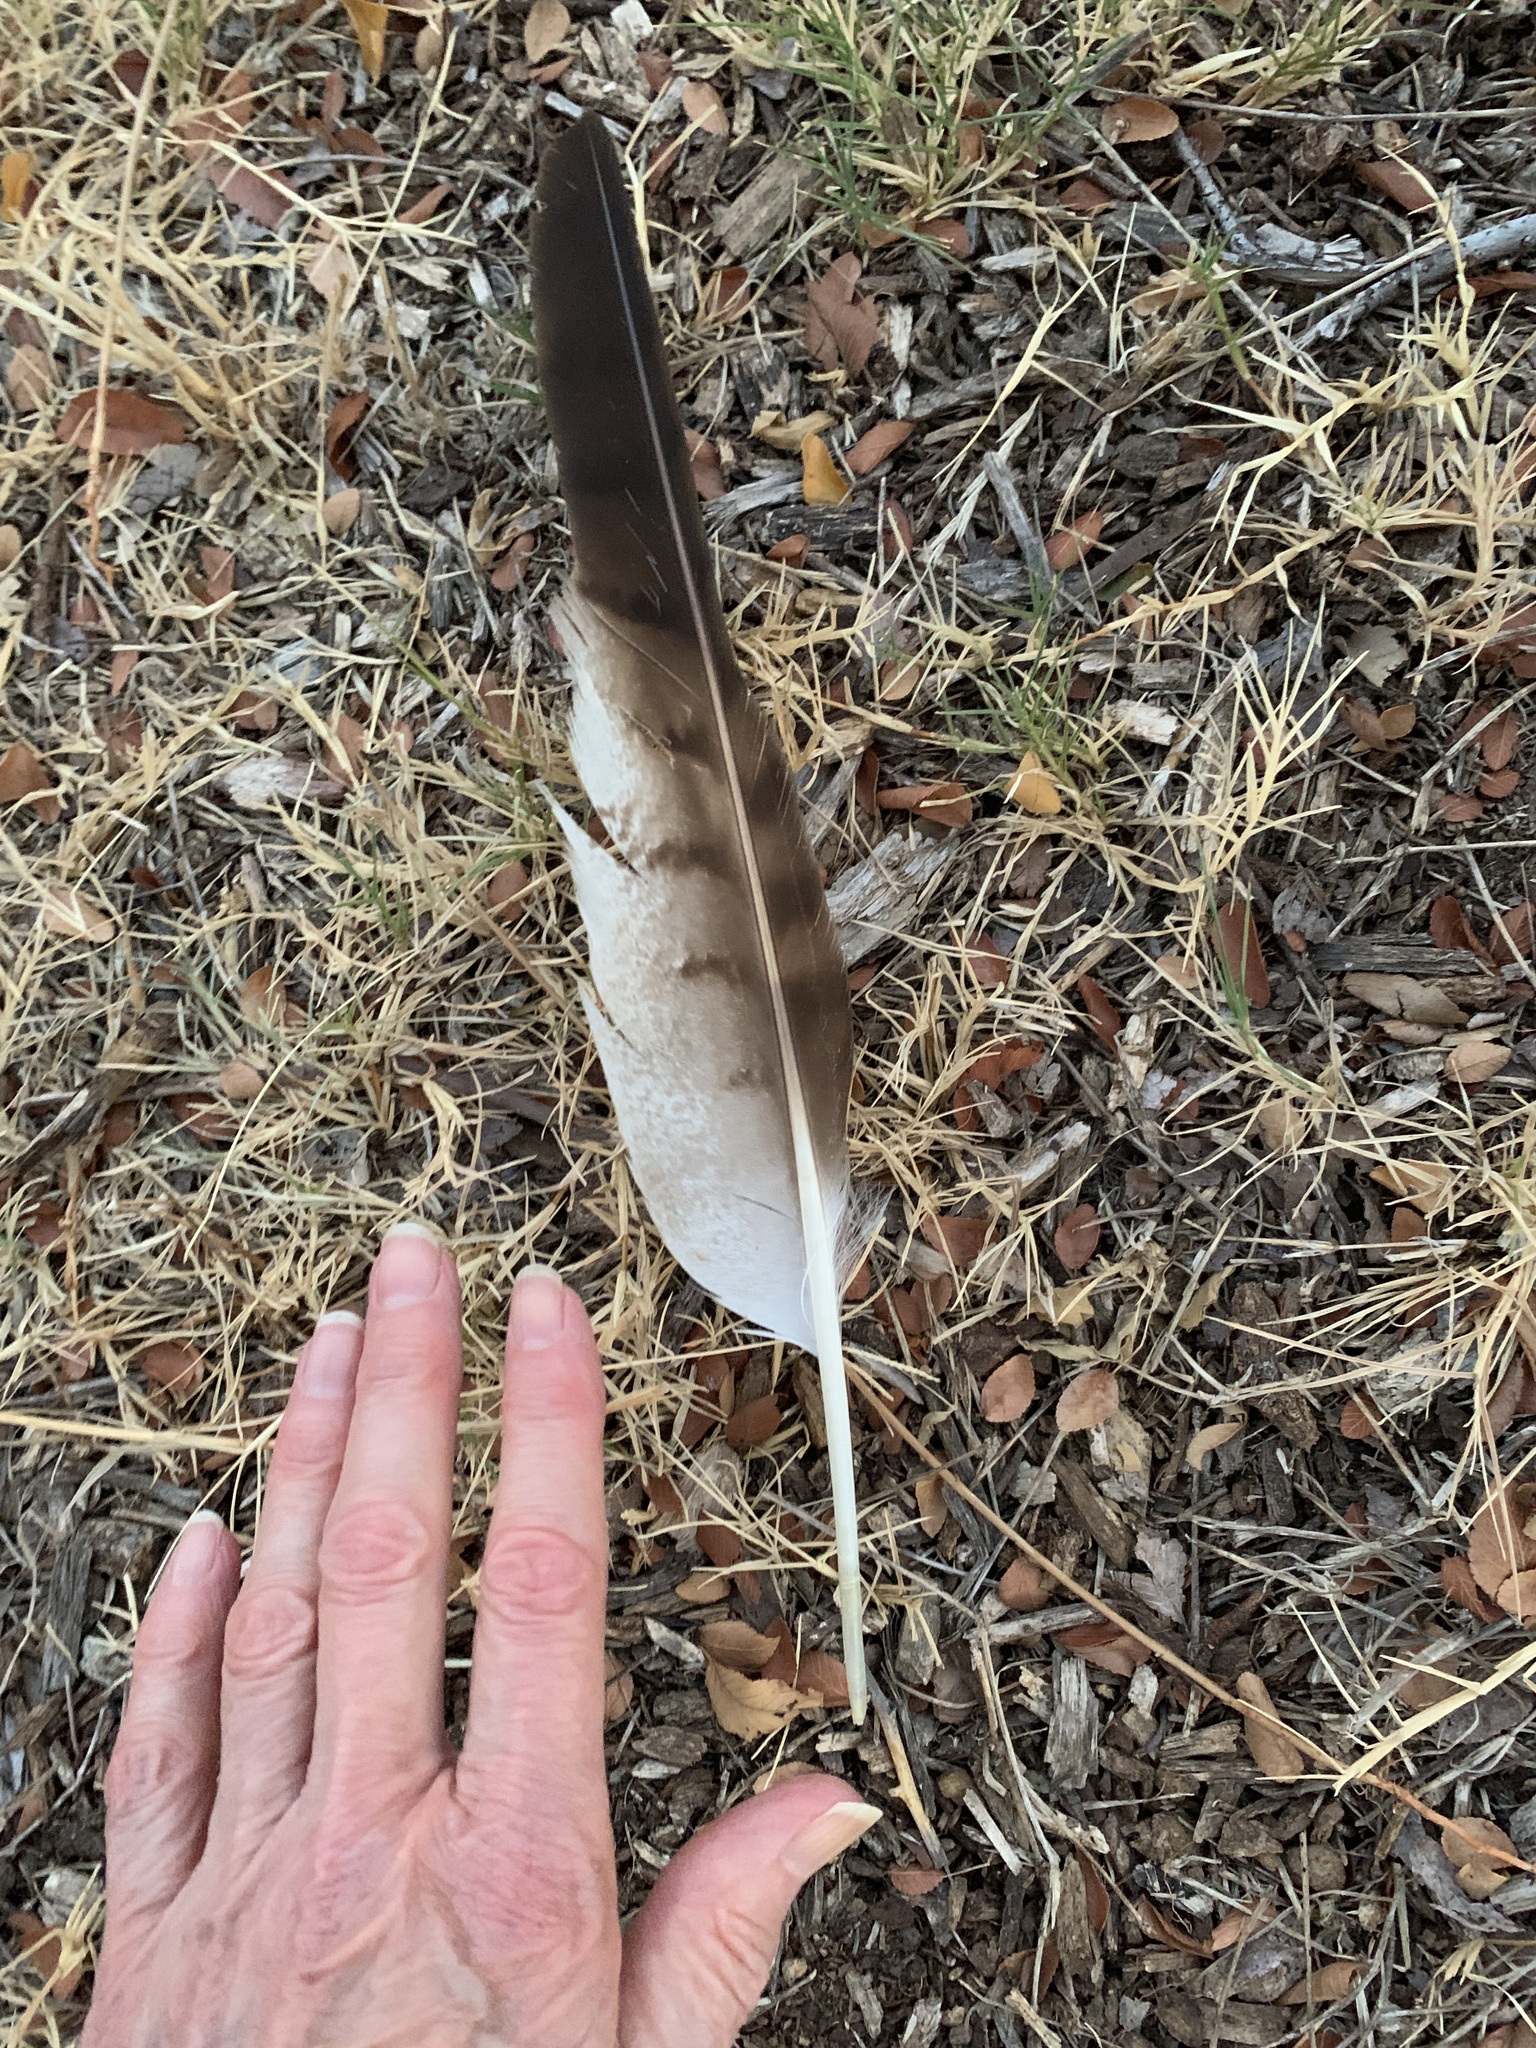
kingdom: Animalia
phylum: Chordata
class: Aves
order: Accipitriformes
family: Accipitridae
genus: Buteo
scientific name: Buteo jamaicensis
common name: Red-tailed hawk
